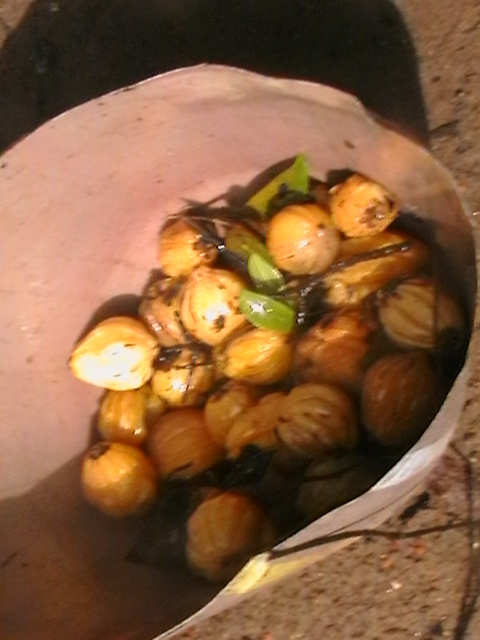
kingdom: Plantae
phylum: Tracheophyta
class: Magnoliopsida
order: Malpighiales
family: Clusiaceae
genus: Garcinia
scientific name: Garcinia gummi-gutta
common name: Malabar tamarind
